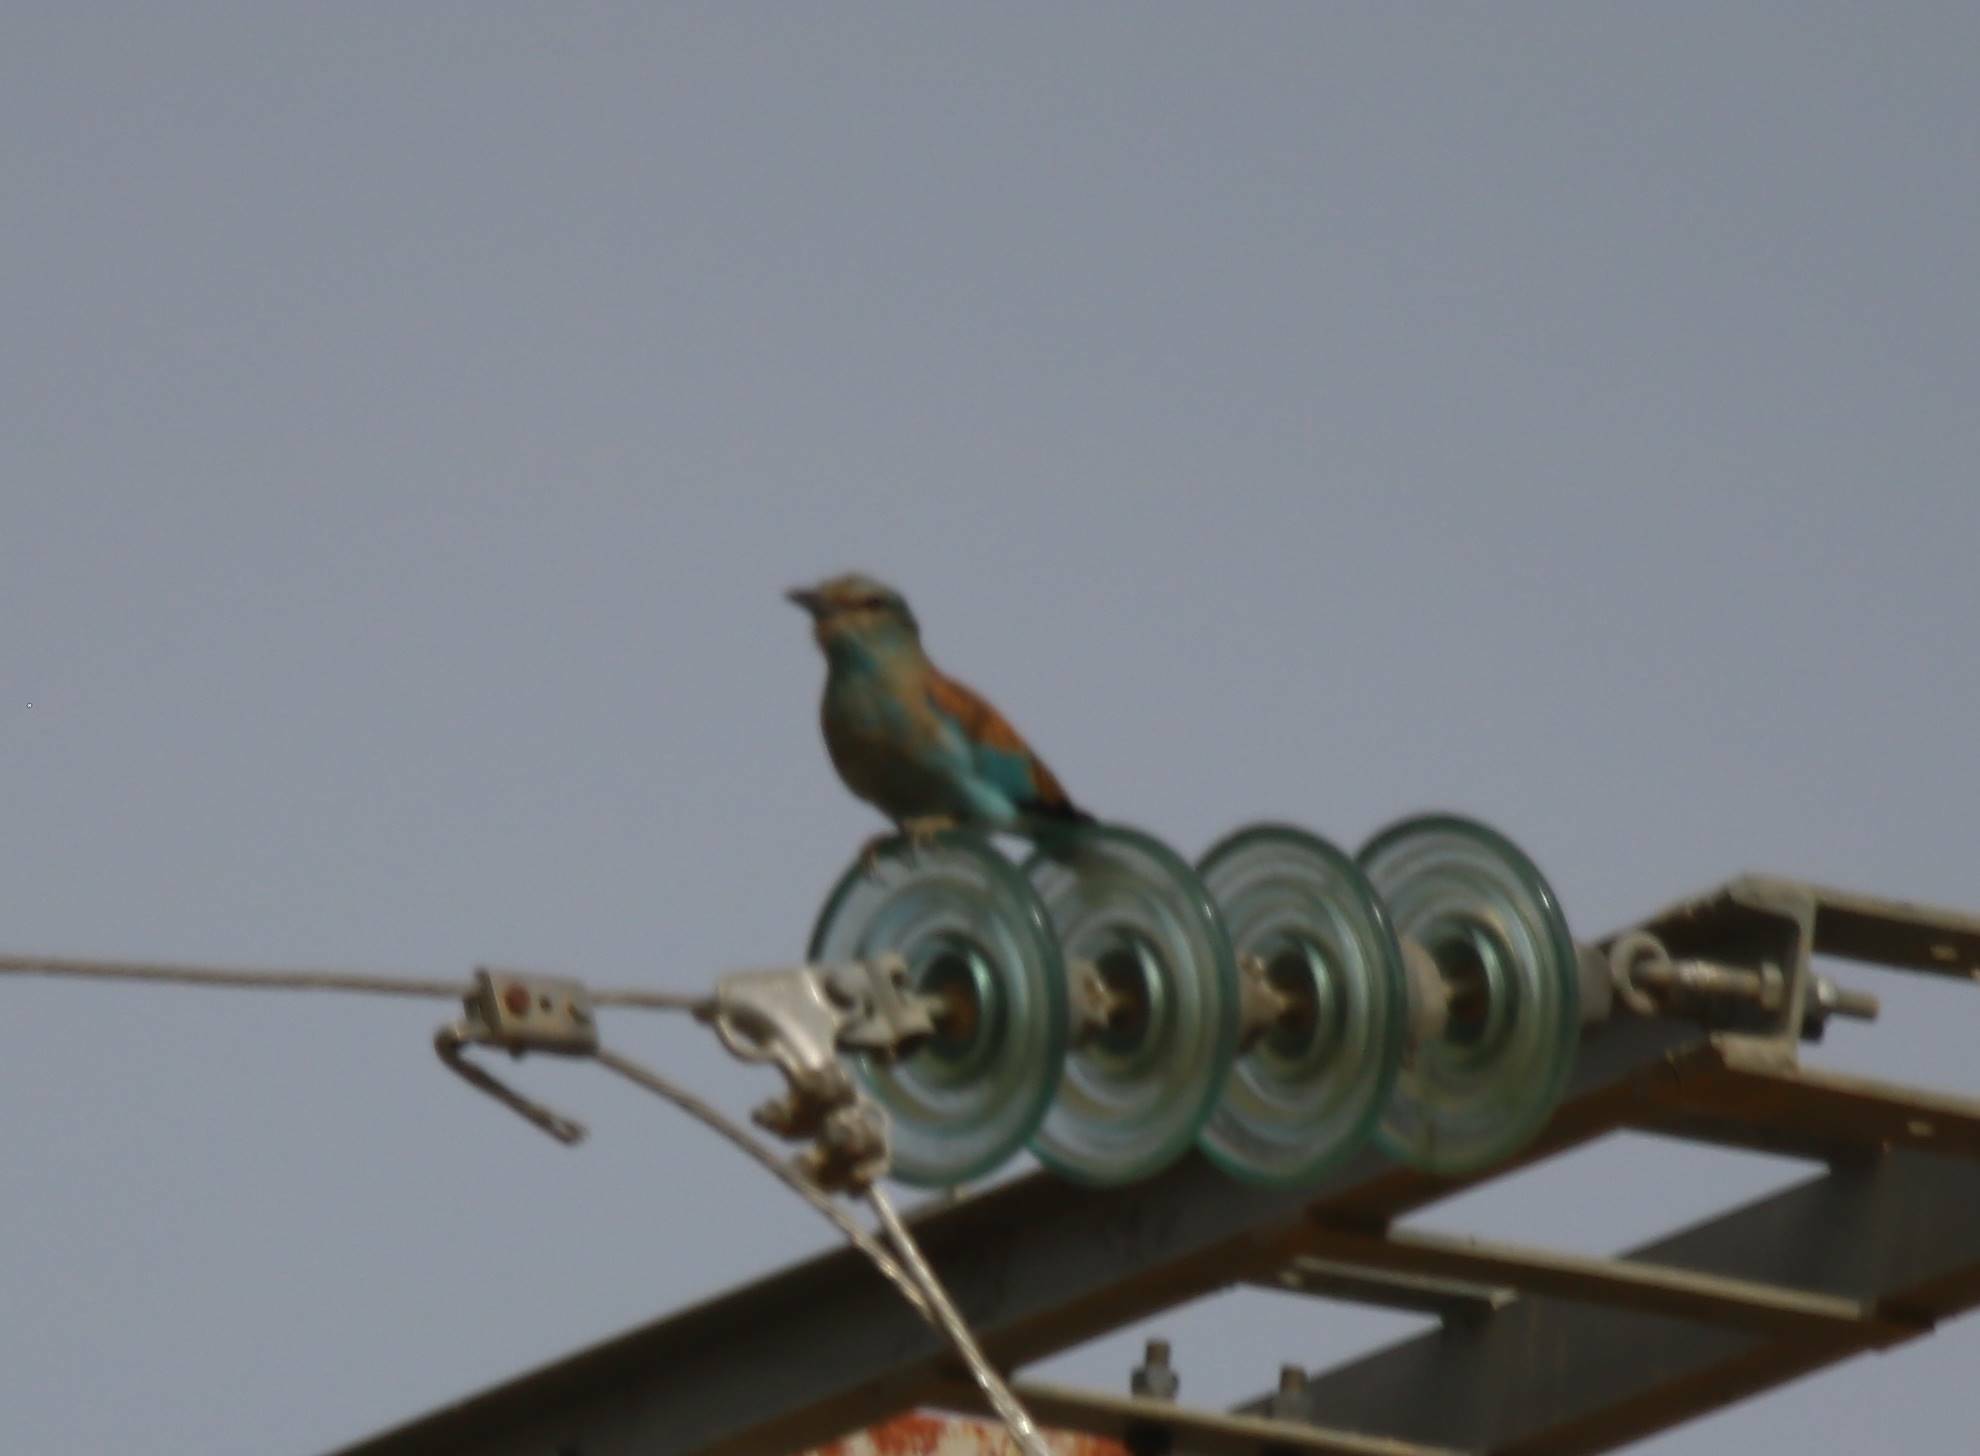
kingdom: Animalia
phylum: Chordata
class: Aves
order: Coraciiformes
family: Coraciidae
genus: Coracias
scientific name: Coracias garrulus
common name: European roller
